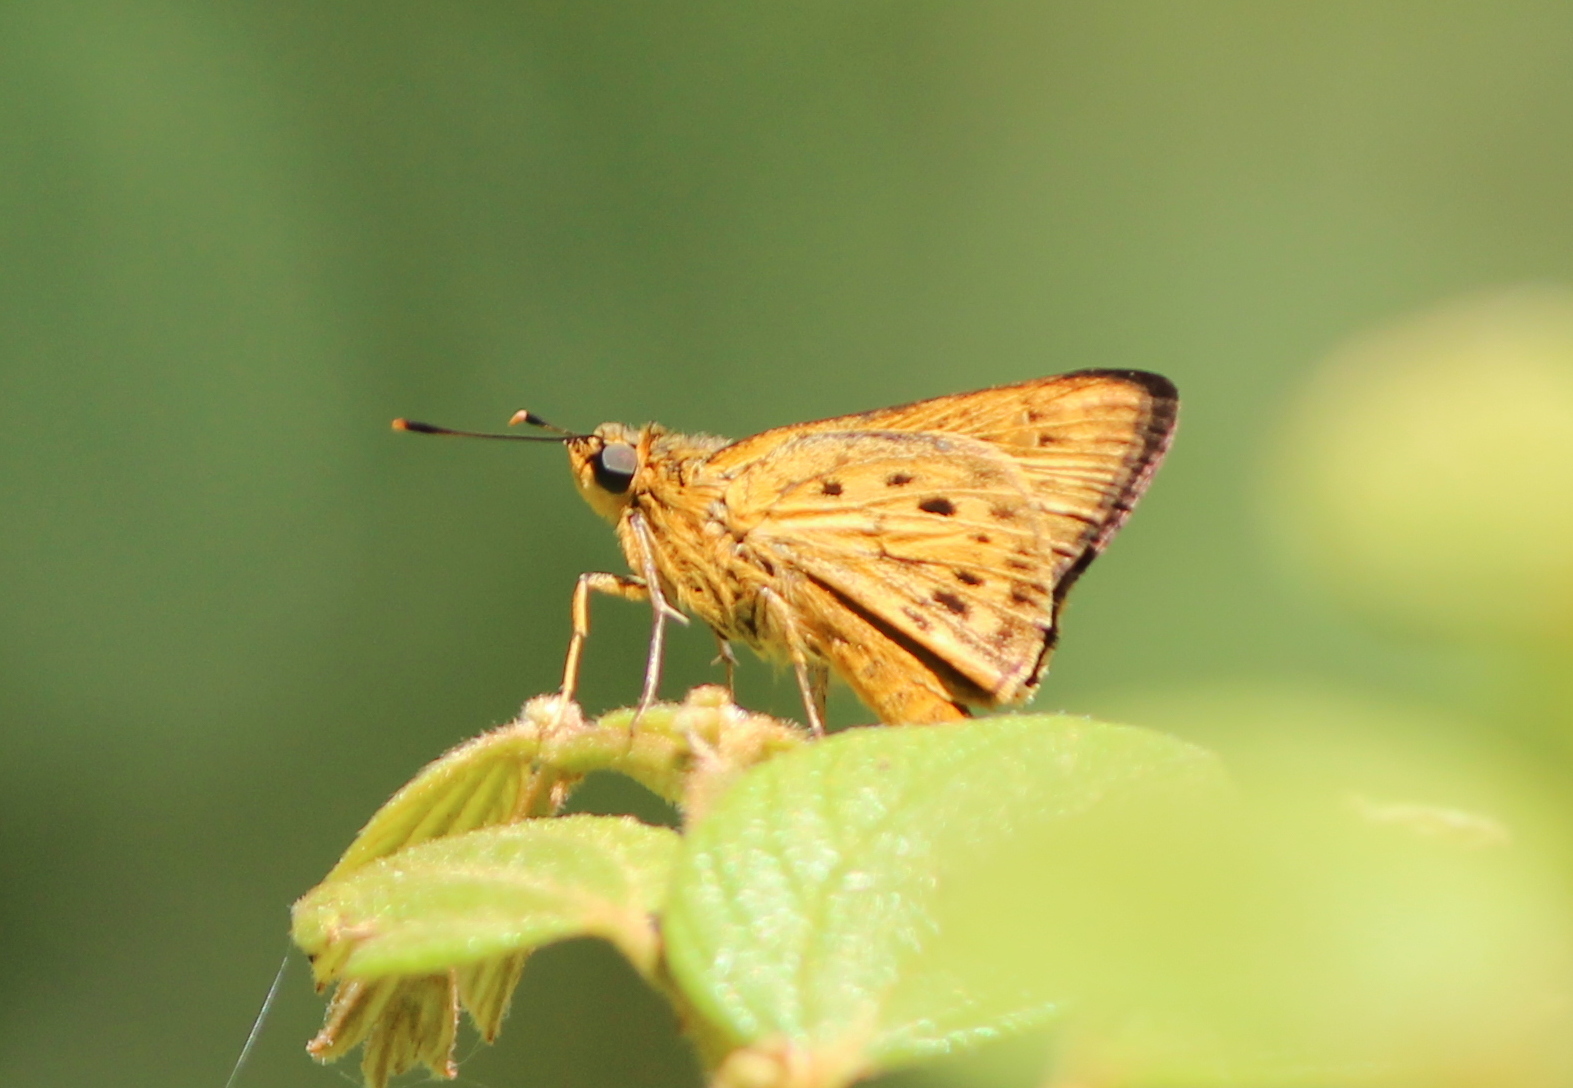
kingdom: Animalia
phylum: Arthropoda
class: Insecta
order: Lepidoptera
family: Hesperiidae
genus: Thoressa
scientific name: Thoressa honorei
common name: Madras ace
